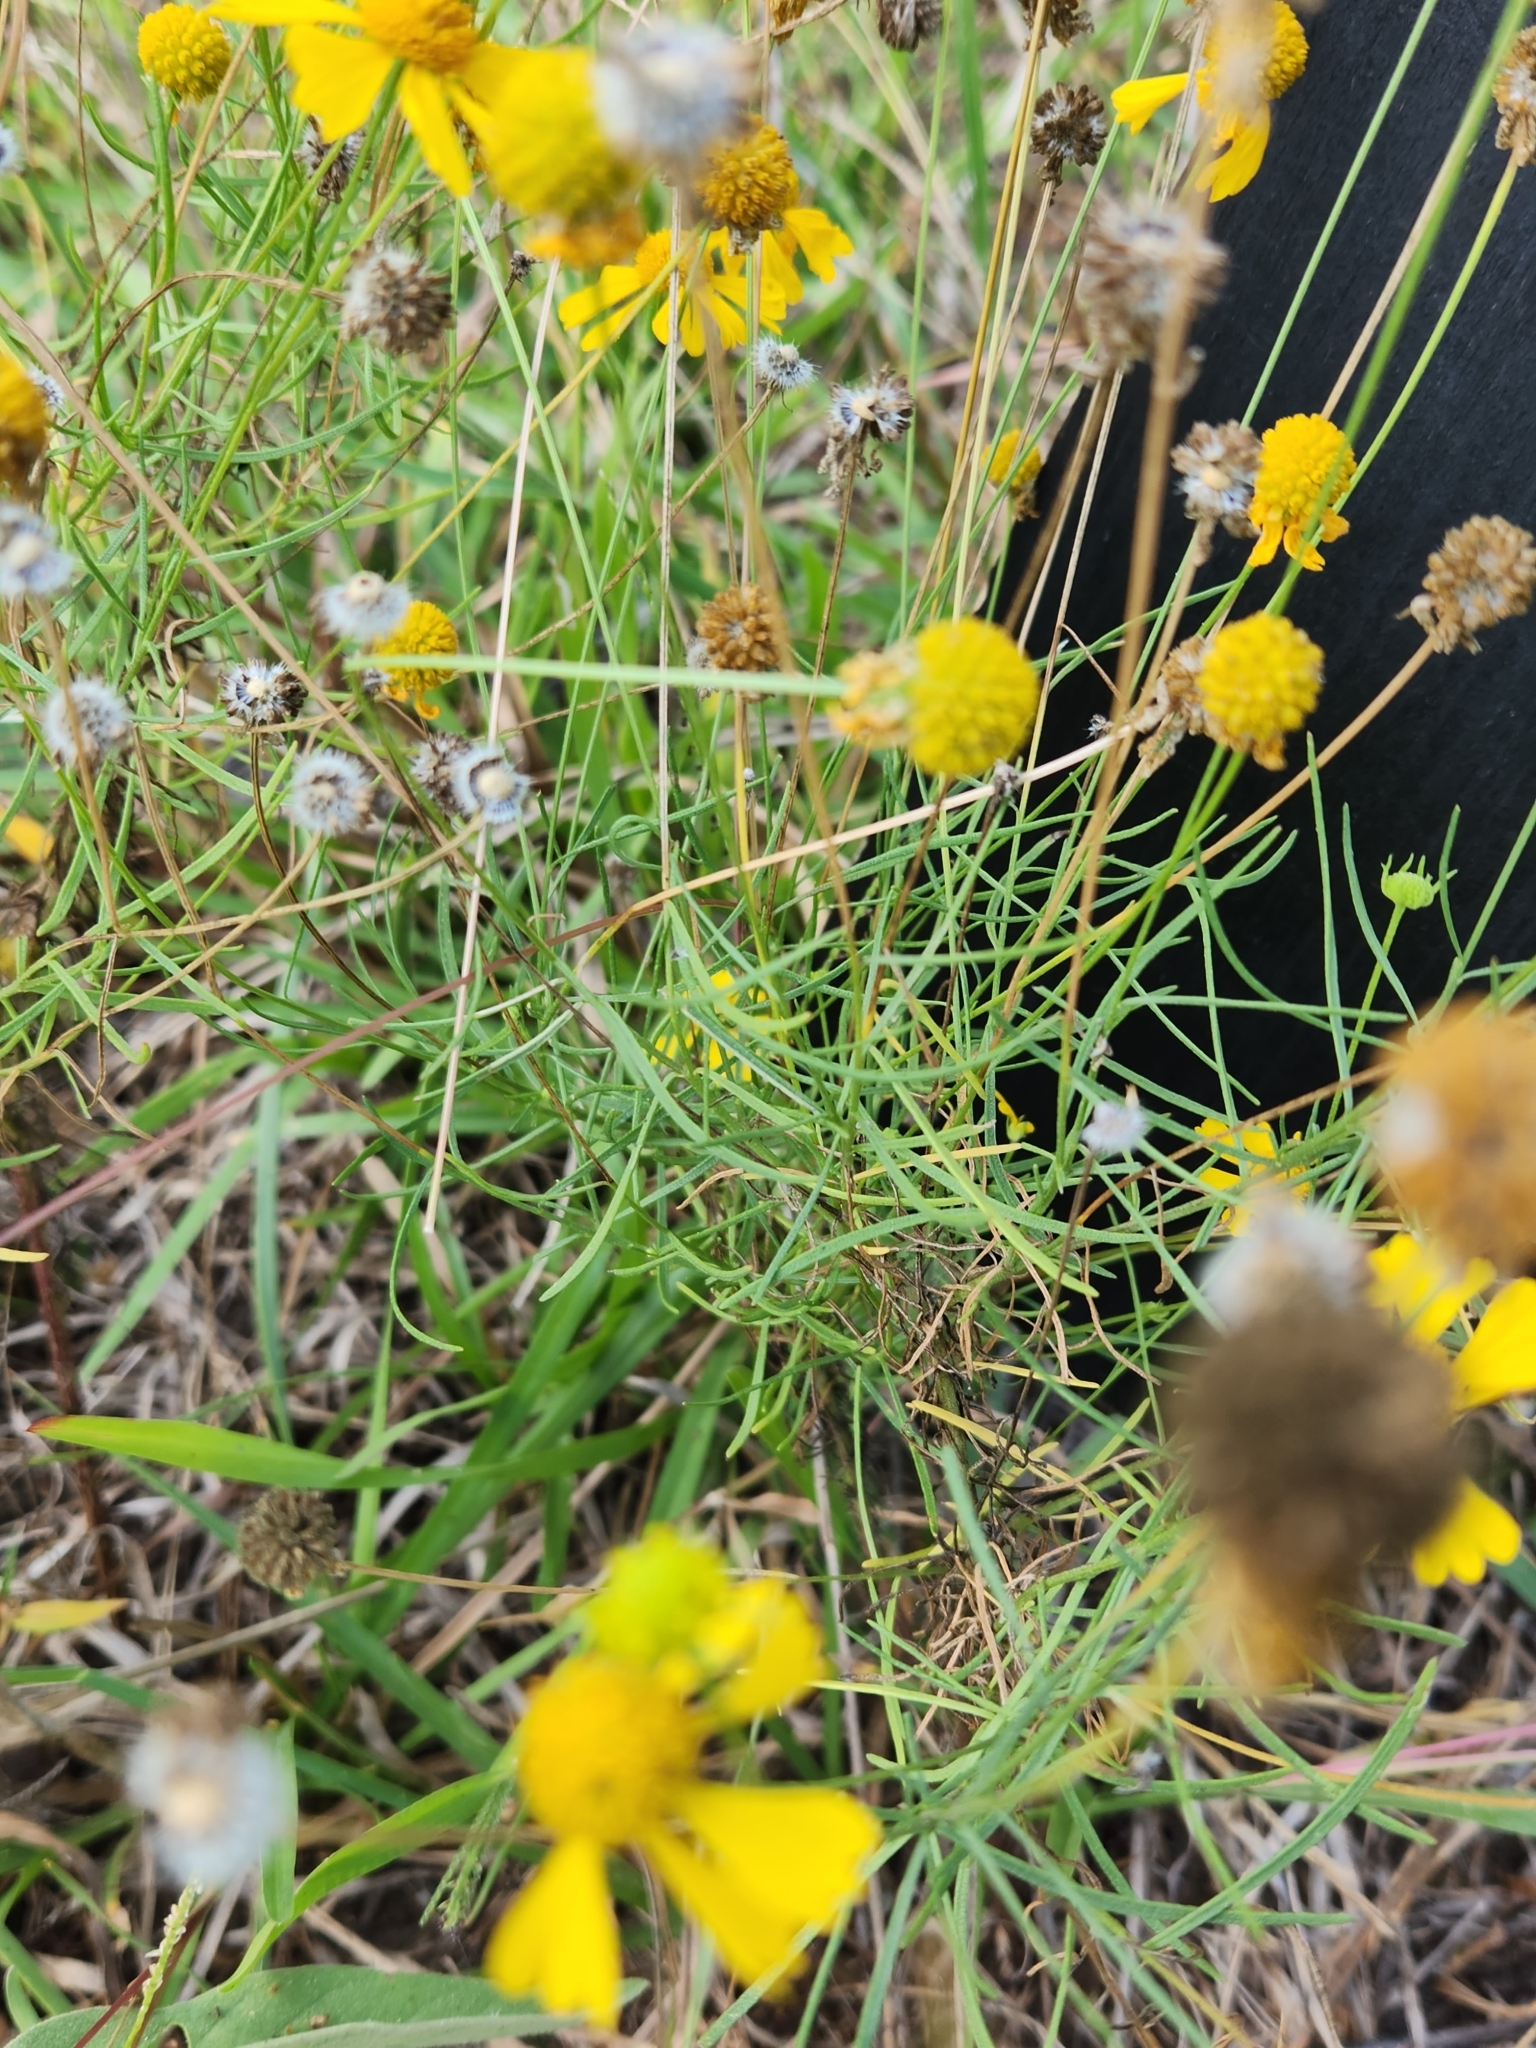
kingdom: Plantae
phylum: Tracheophyta
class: Magnoliopsida
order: Asterales
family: Asteraceae
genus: Helenium
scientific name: Helenium amarum
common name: Bitter sneezeweed
